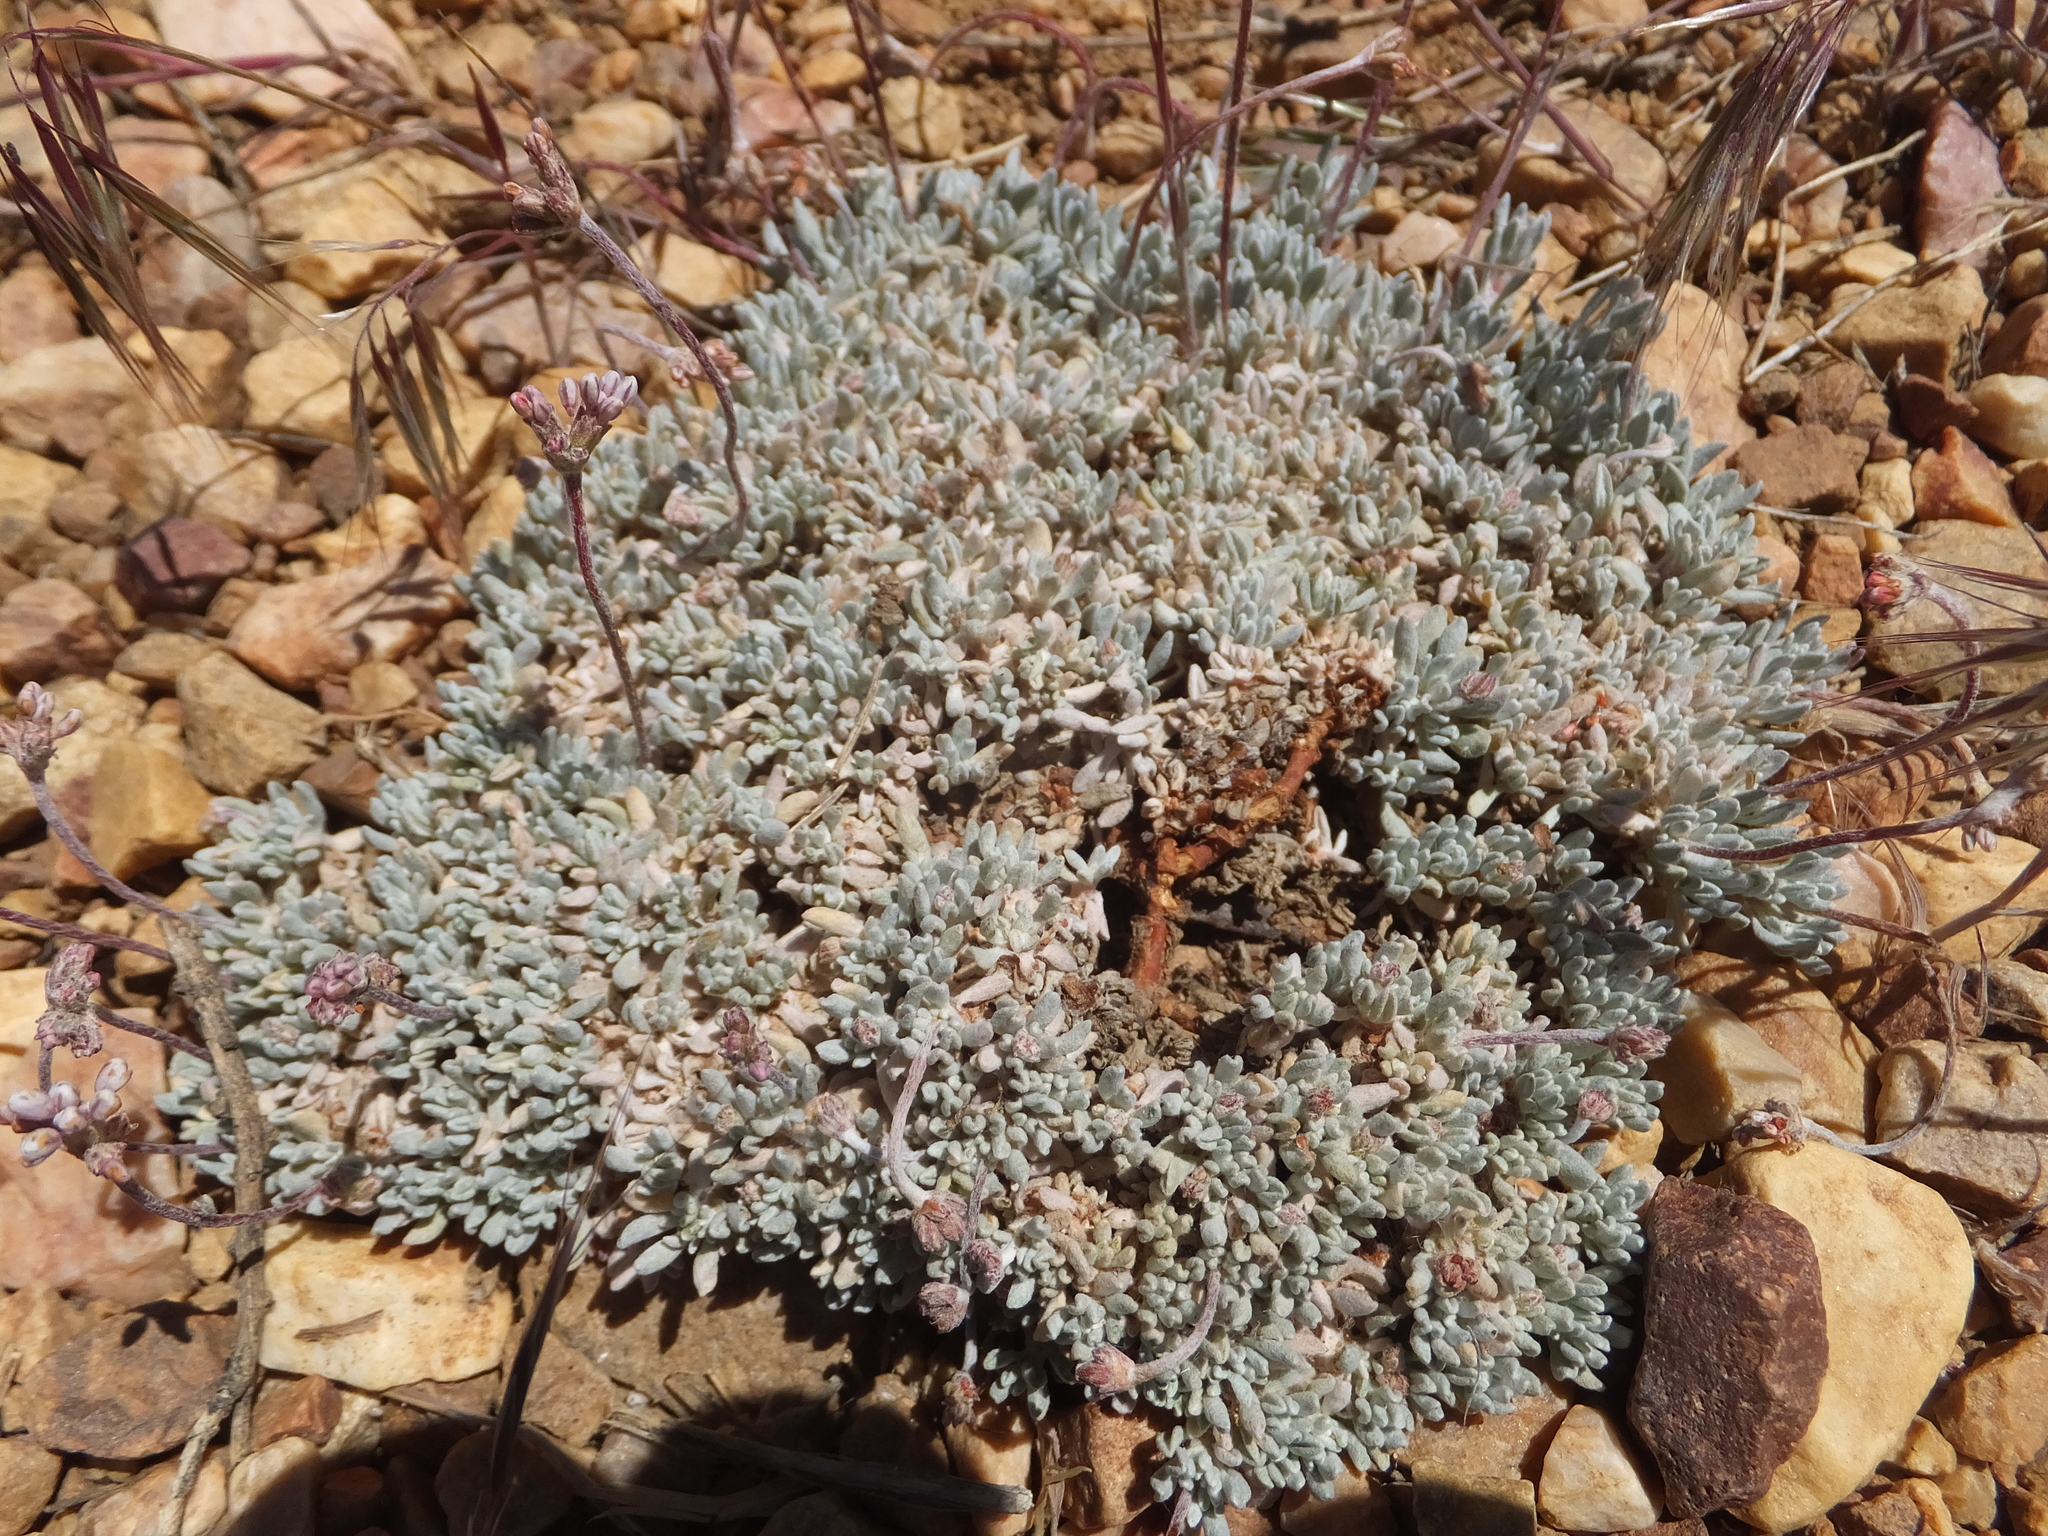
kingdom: Plantae
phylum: Tracheophyta
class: Magnoliopsida
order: Caryophyllales
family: Polygonaceae
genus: Eriogonum
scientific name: Eriogonum kennedyi
